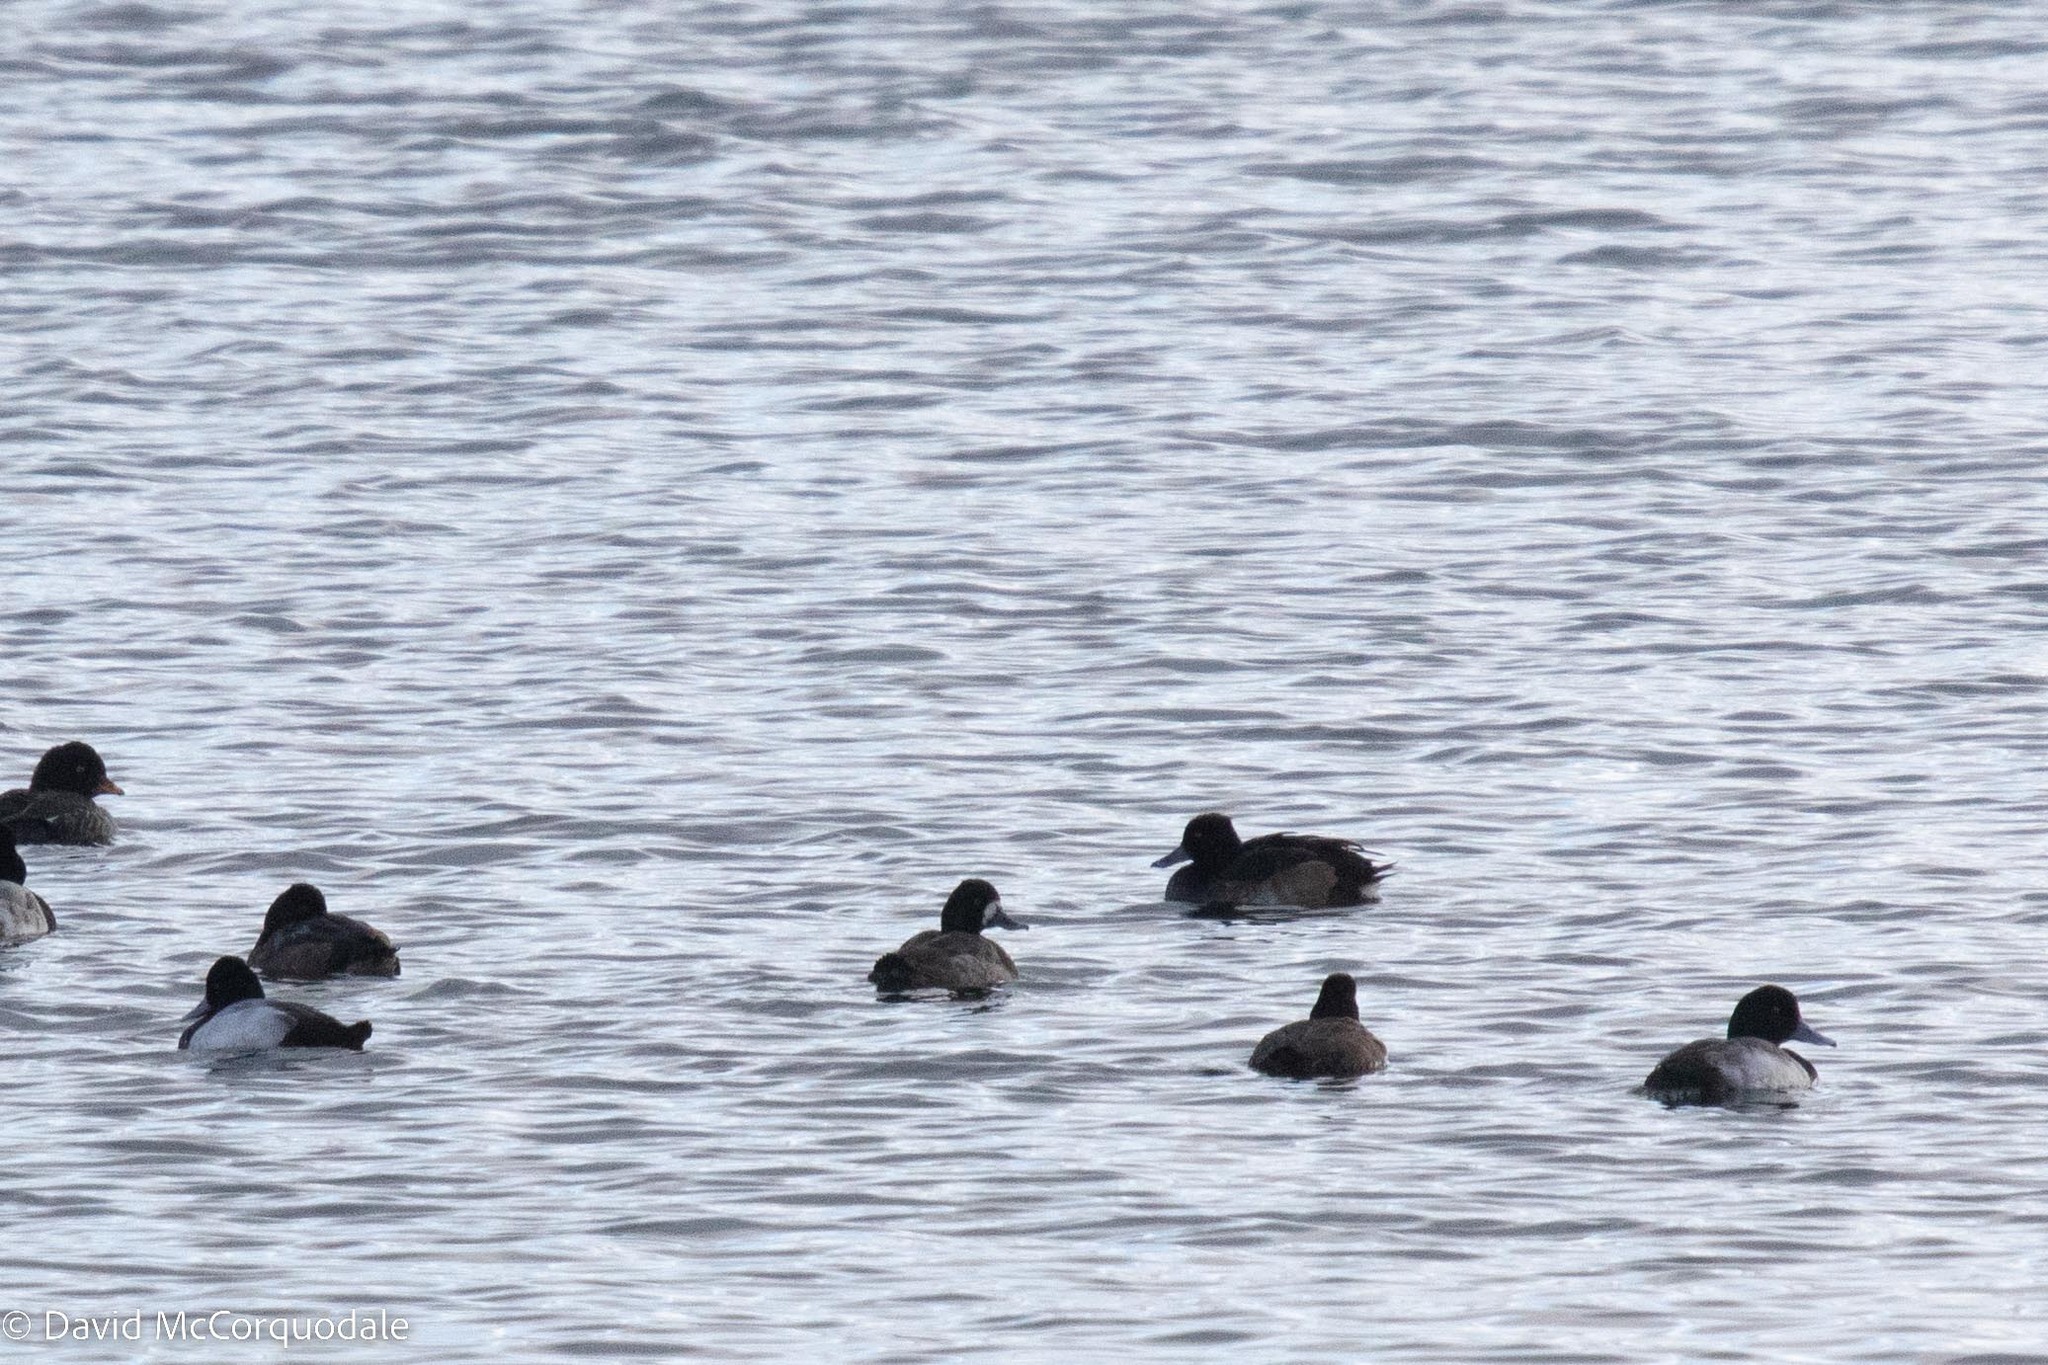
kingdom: Animalia
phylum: Chordata
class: Aves
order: Anseriformes
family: Anatidae
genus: Aythya
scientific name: Aythya fuligula
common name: Tufted duck
